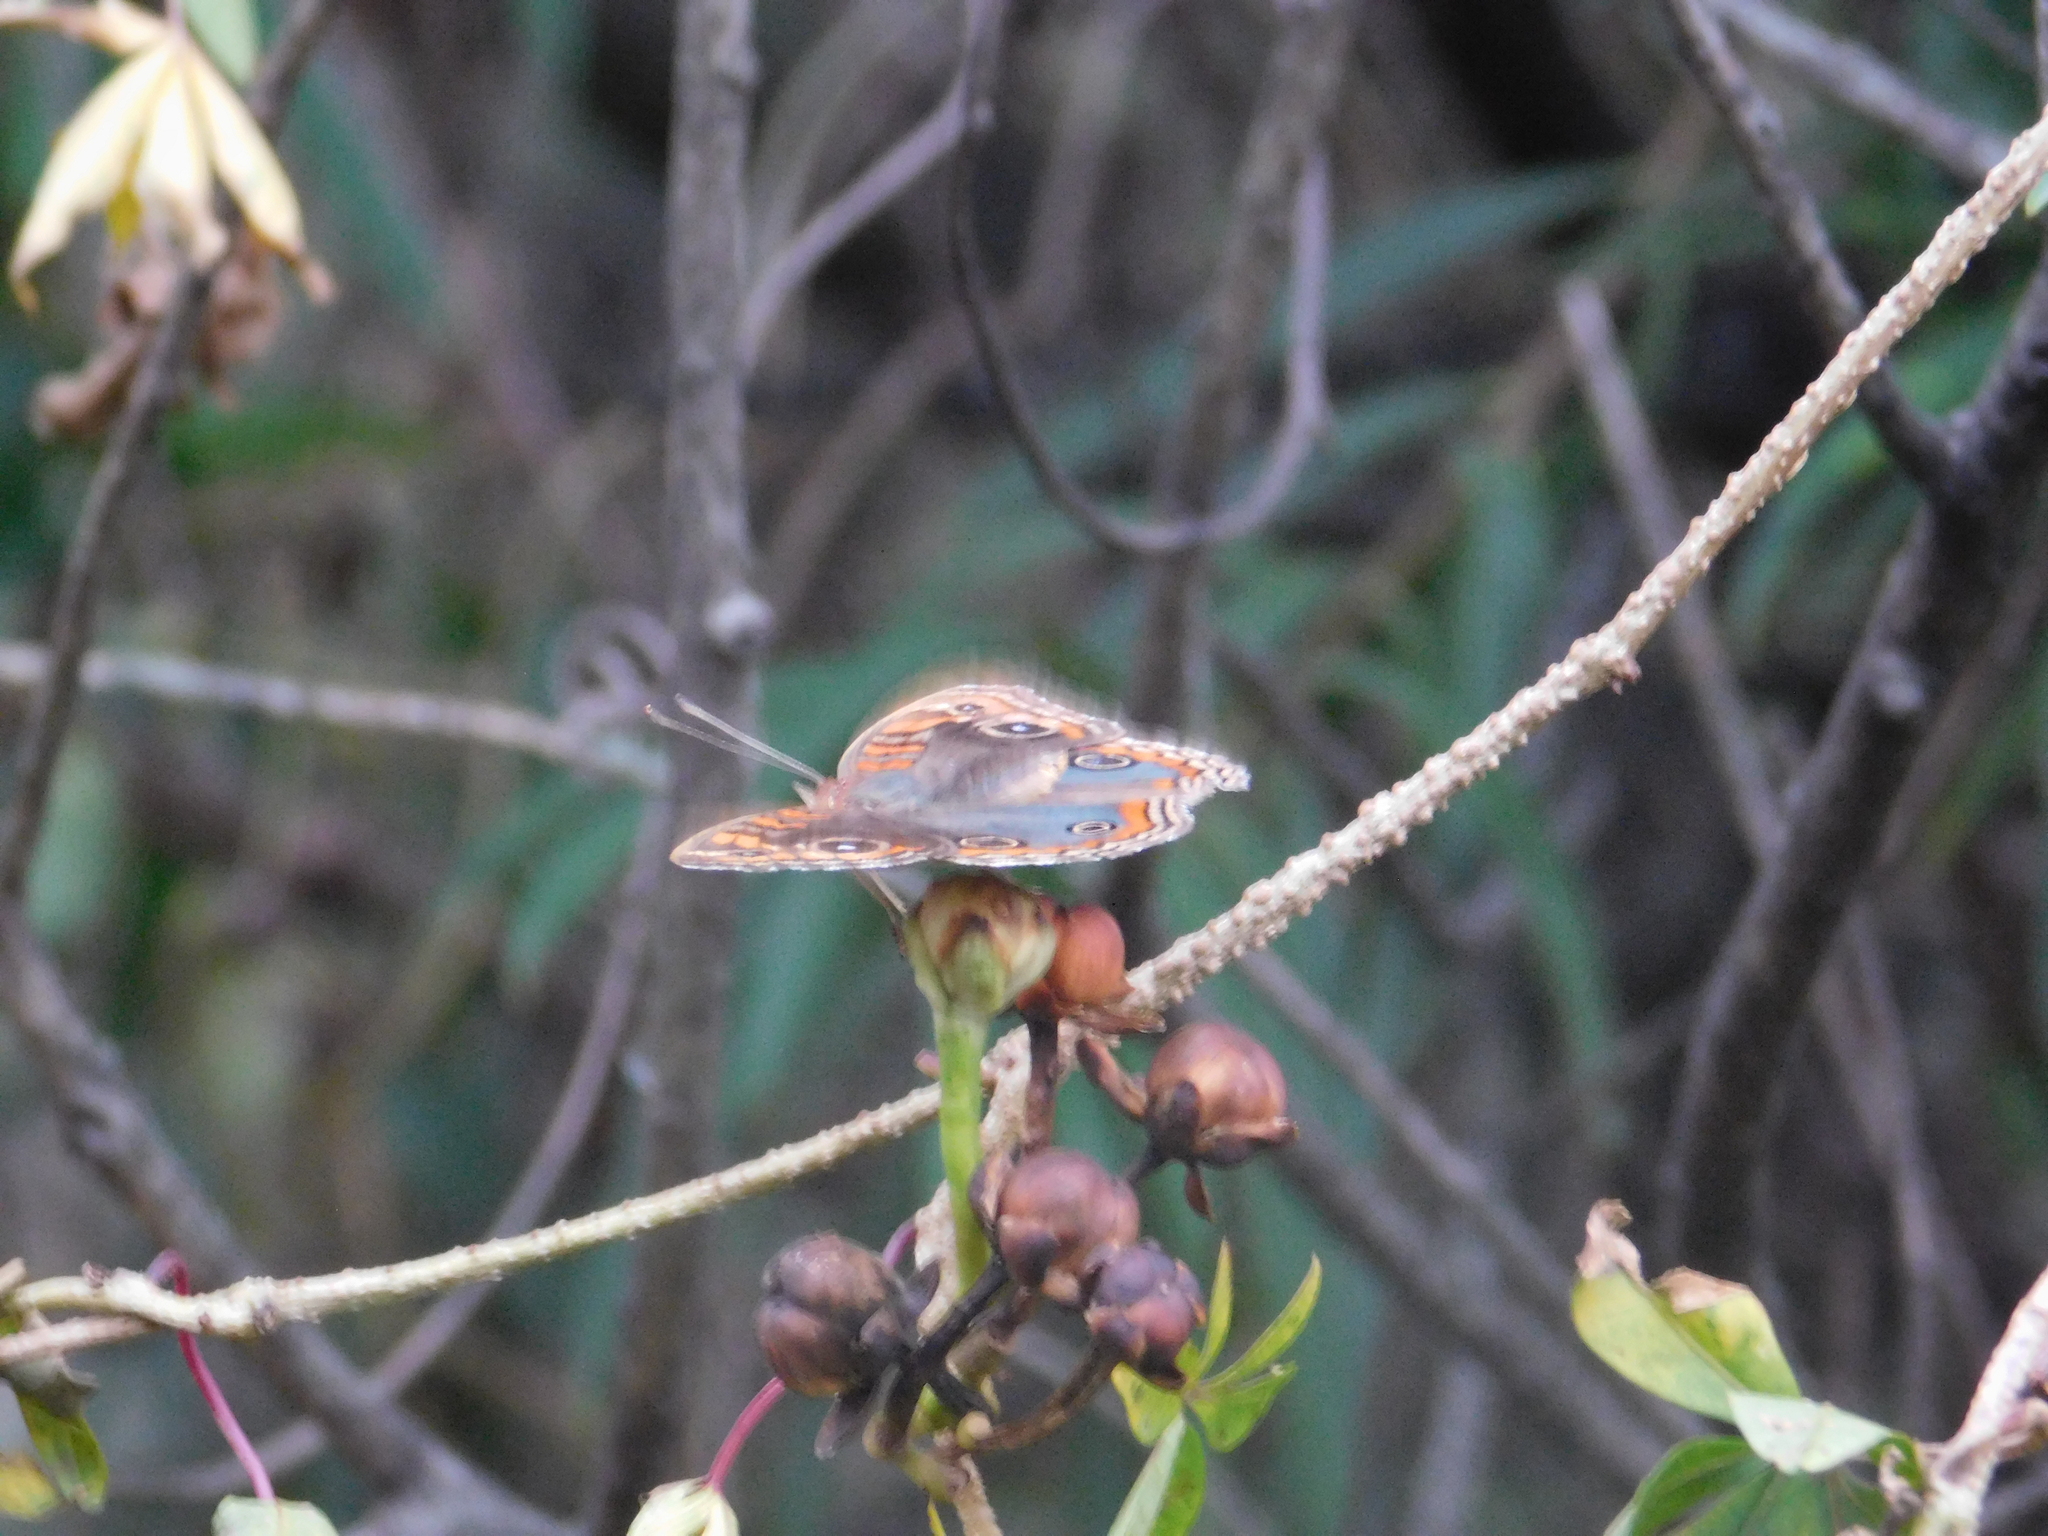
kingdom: Animalia
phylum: Arthropoda
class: Insecta
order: Lepidoptera
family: Nymphalidae
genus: Junonia
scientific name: Junonia lavinia
